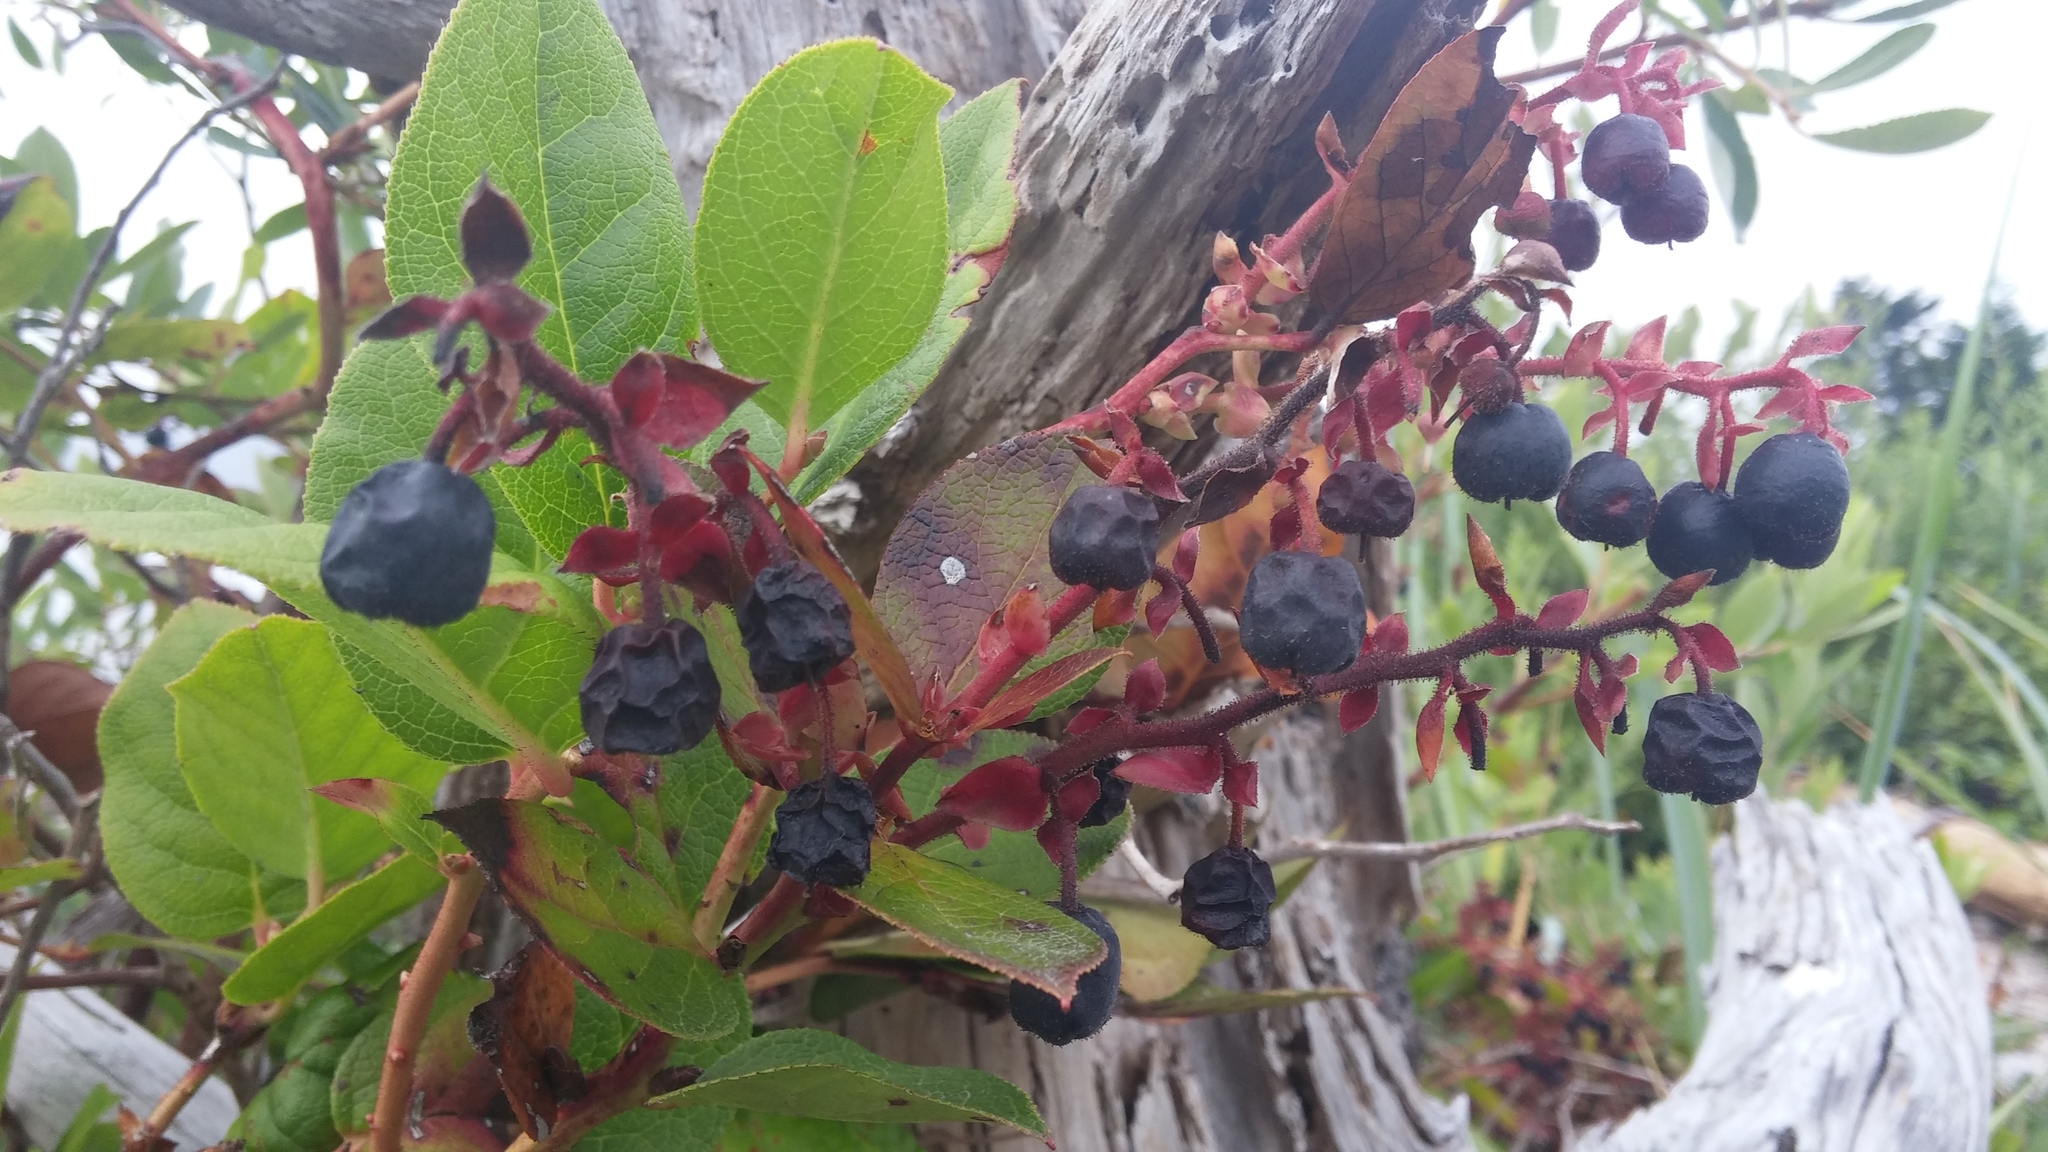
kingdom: Plantae
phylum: Tracheophyta
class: Magnoliopsida
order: Ericales
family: Ericaceae
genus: Gaultheria
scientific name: Gaultheria shallon
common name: Shallon
